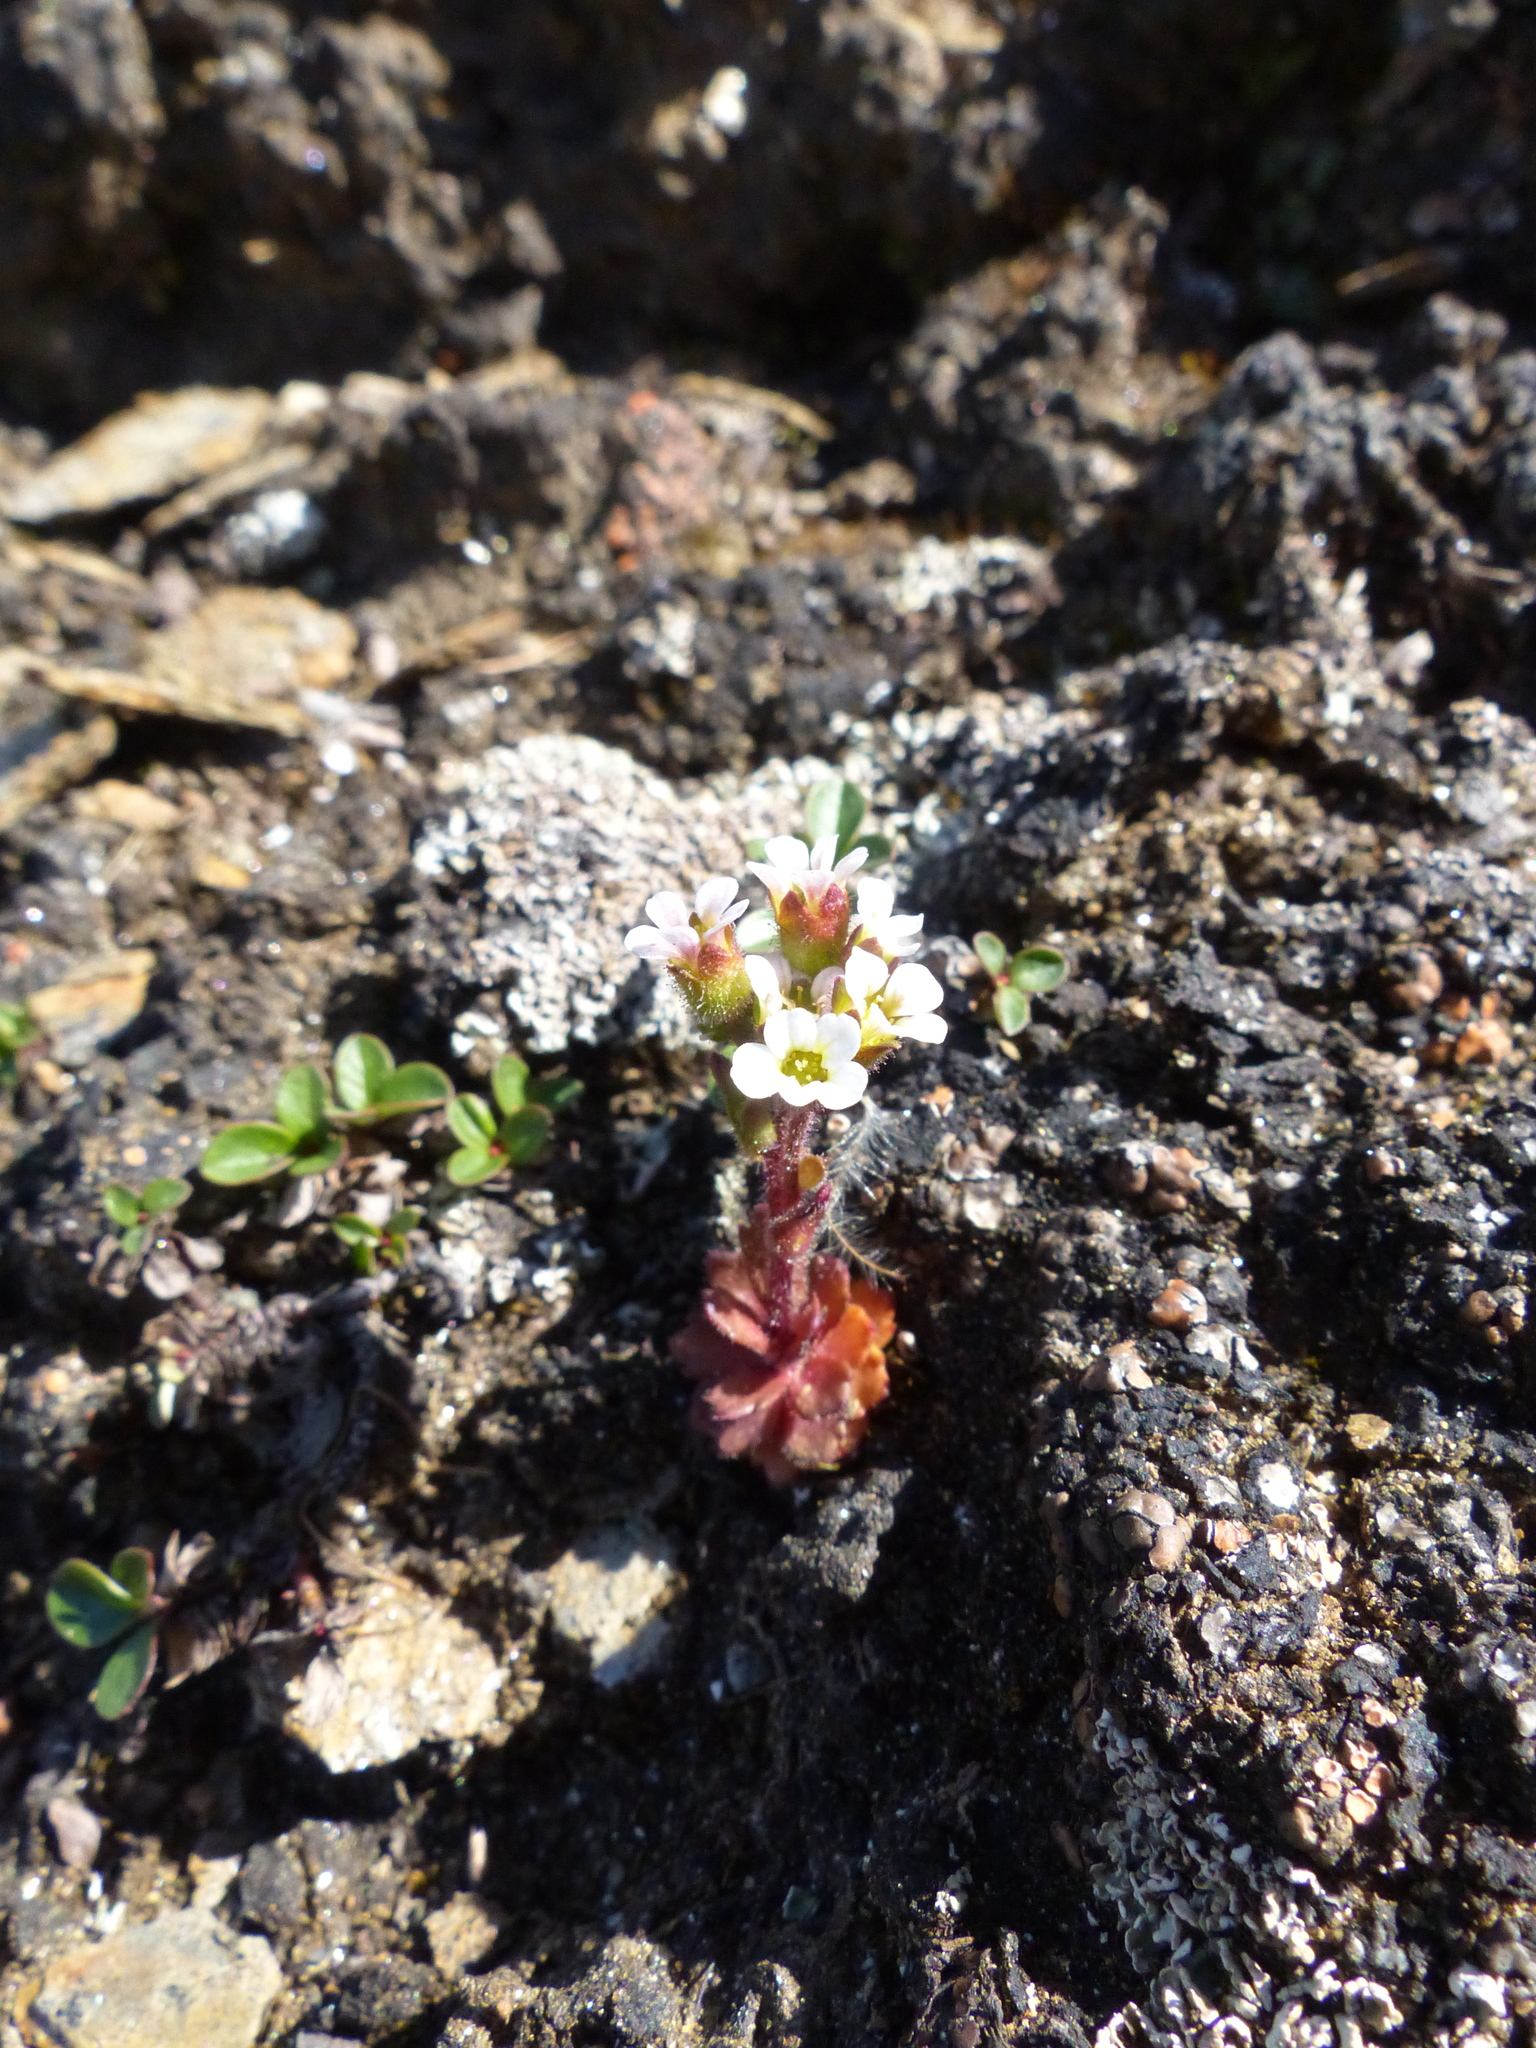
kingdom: Plantae
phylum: Tracheophyta
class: Magnoliopsida
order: Saxifragales
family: Saxifragaceae
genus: Saxifraga
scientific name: Saxifraga adscendens
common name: Ascending saxifrage
